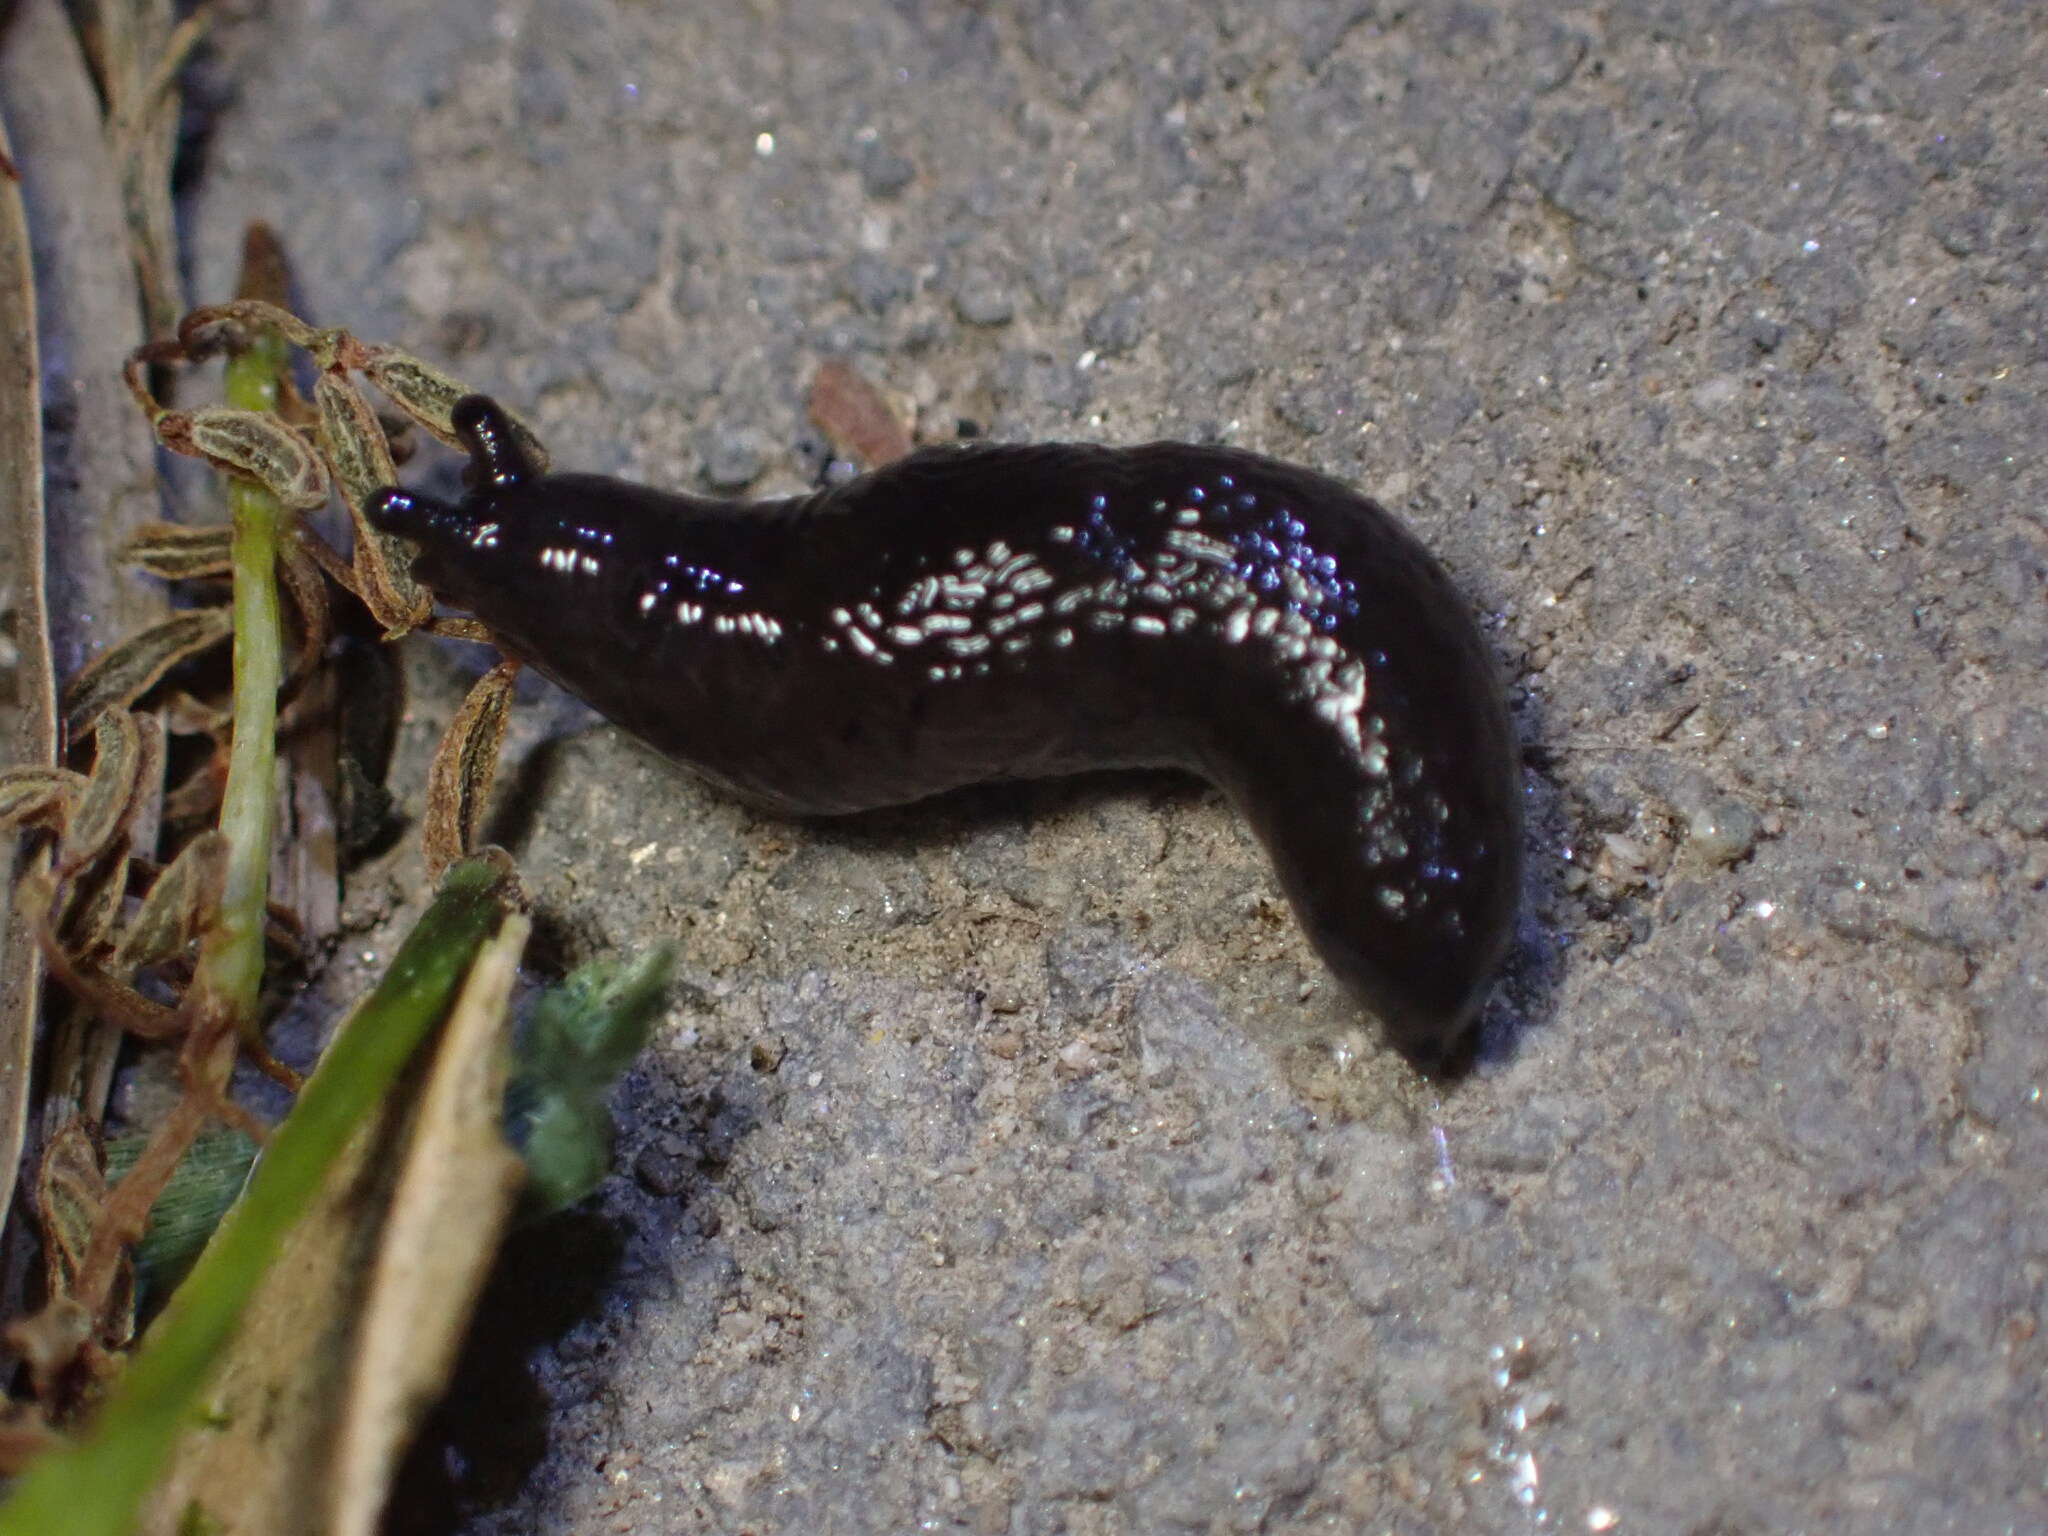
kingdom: Animalia
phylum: Mollusca
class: Gastropoda
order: Stylommatophora
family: Agriolimacidae
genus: Deroceras
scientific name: Deroceras laeve
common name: Marsh slug
